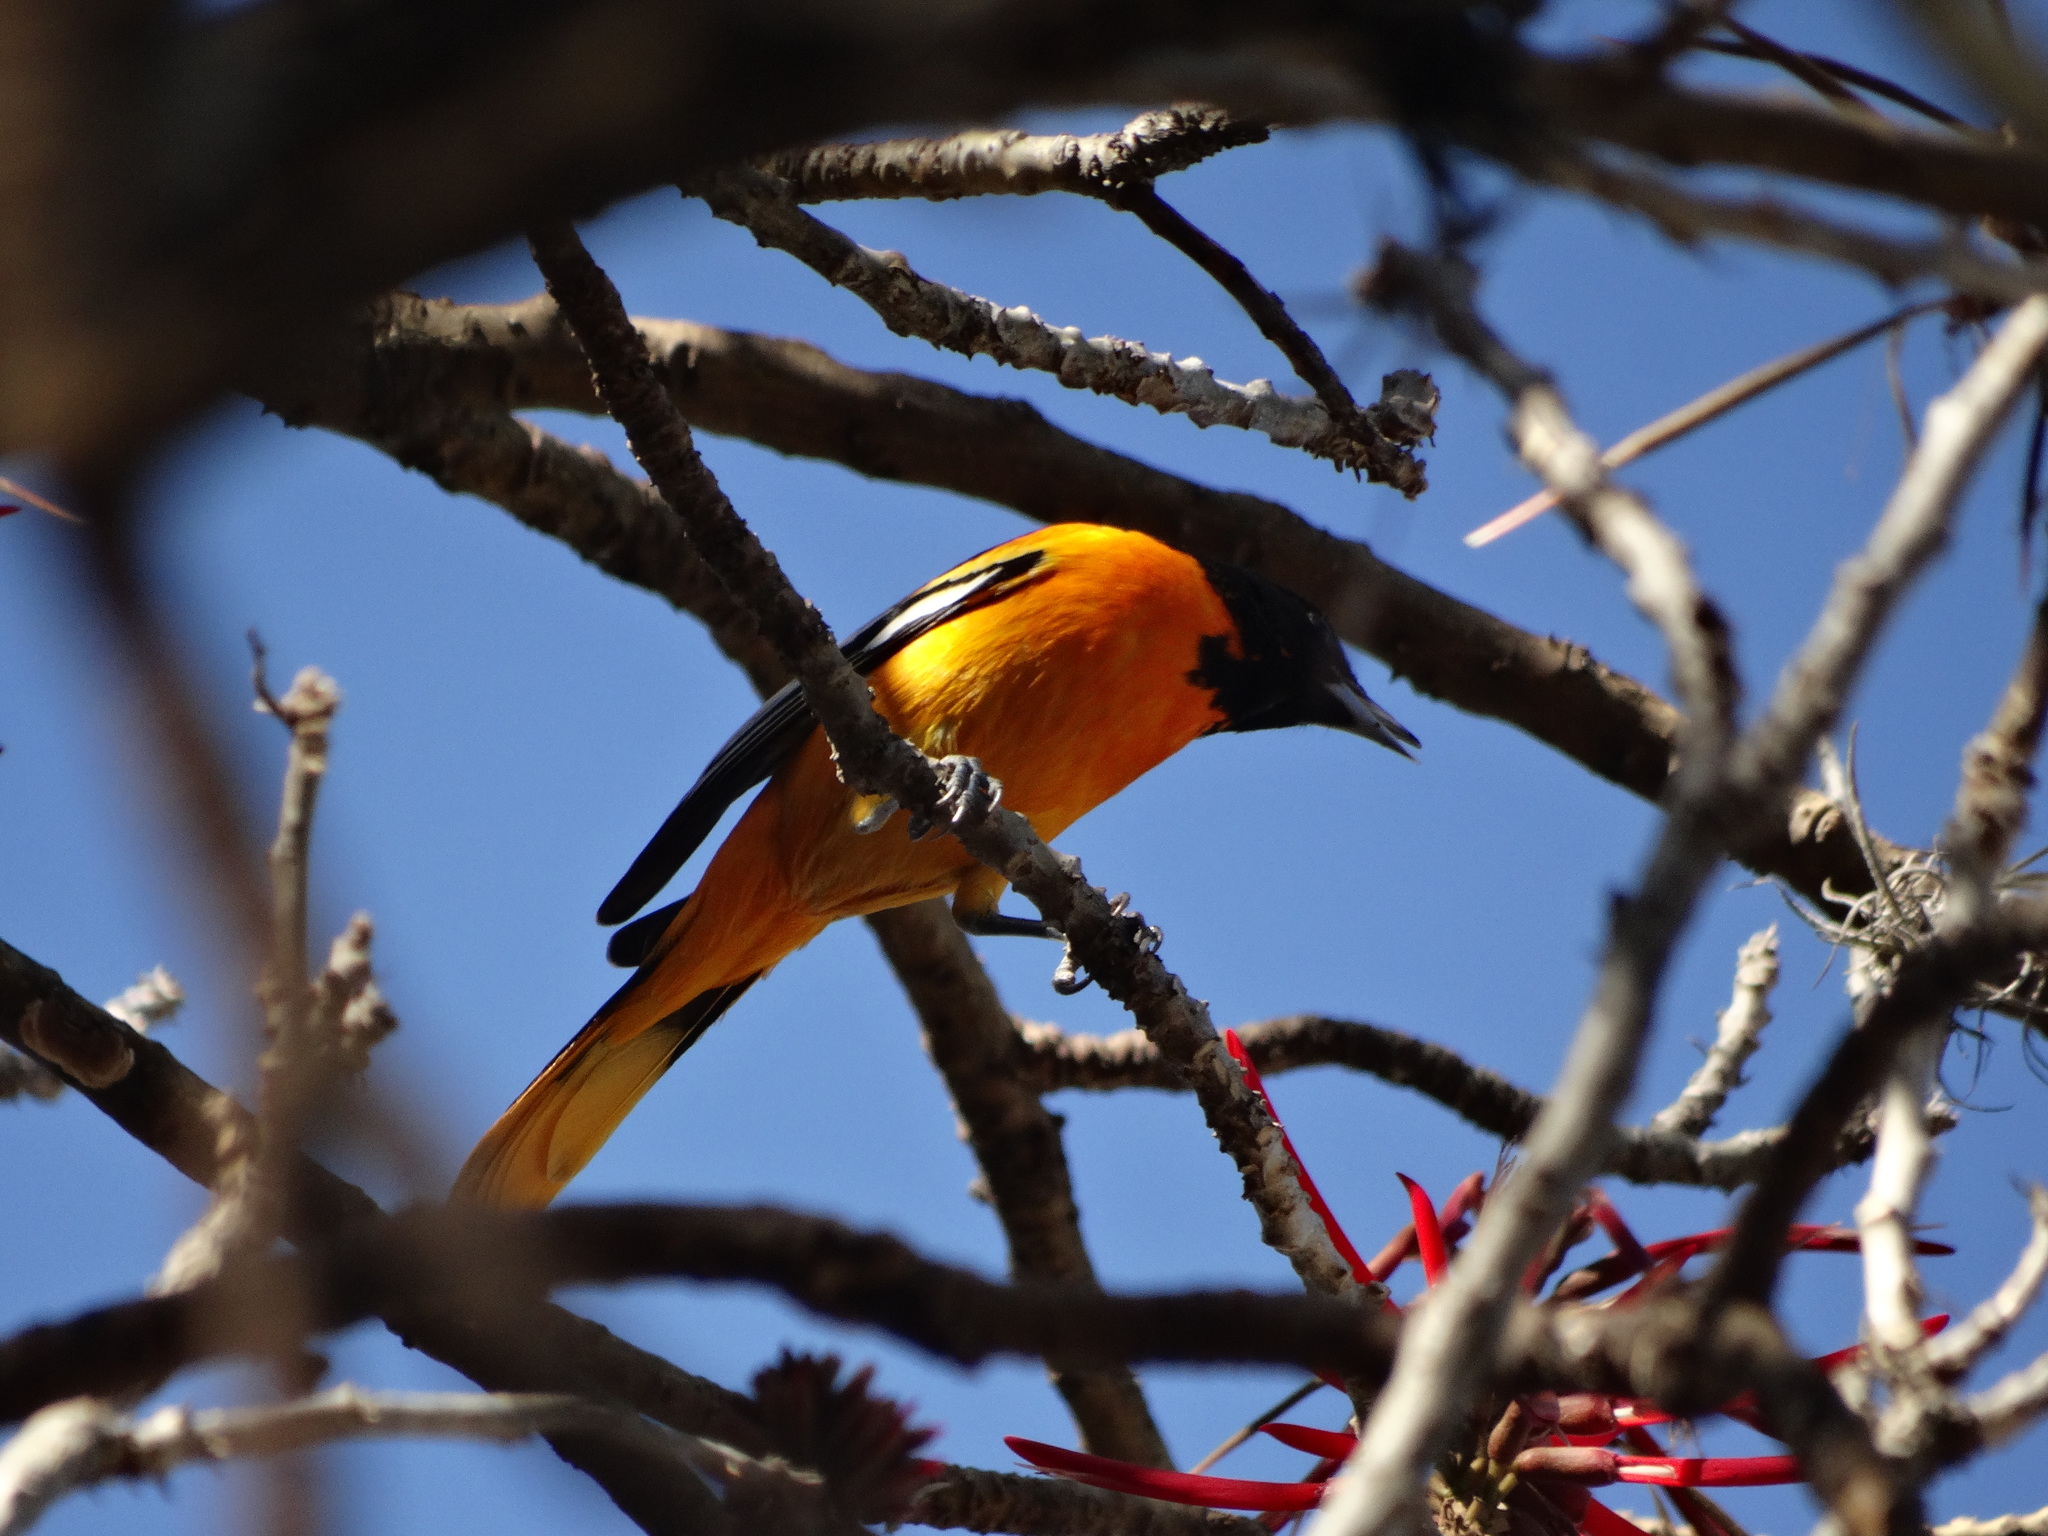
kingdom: Animalia
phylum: Chordata
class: Aves
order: Passeriformes
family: Icteridae
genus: Icterus
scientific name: Icterus galbula
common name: Baltimore oriole
